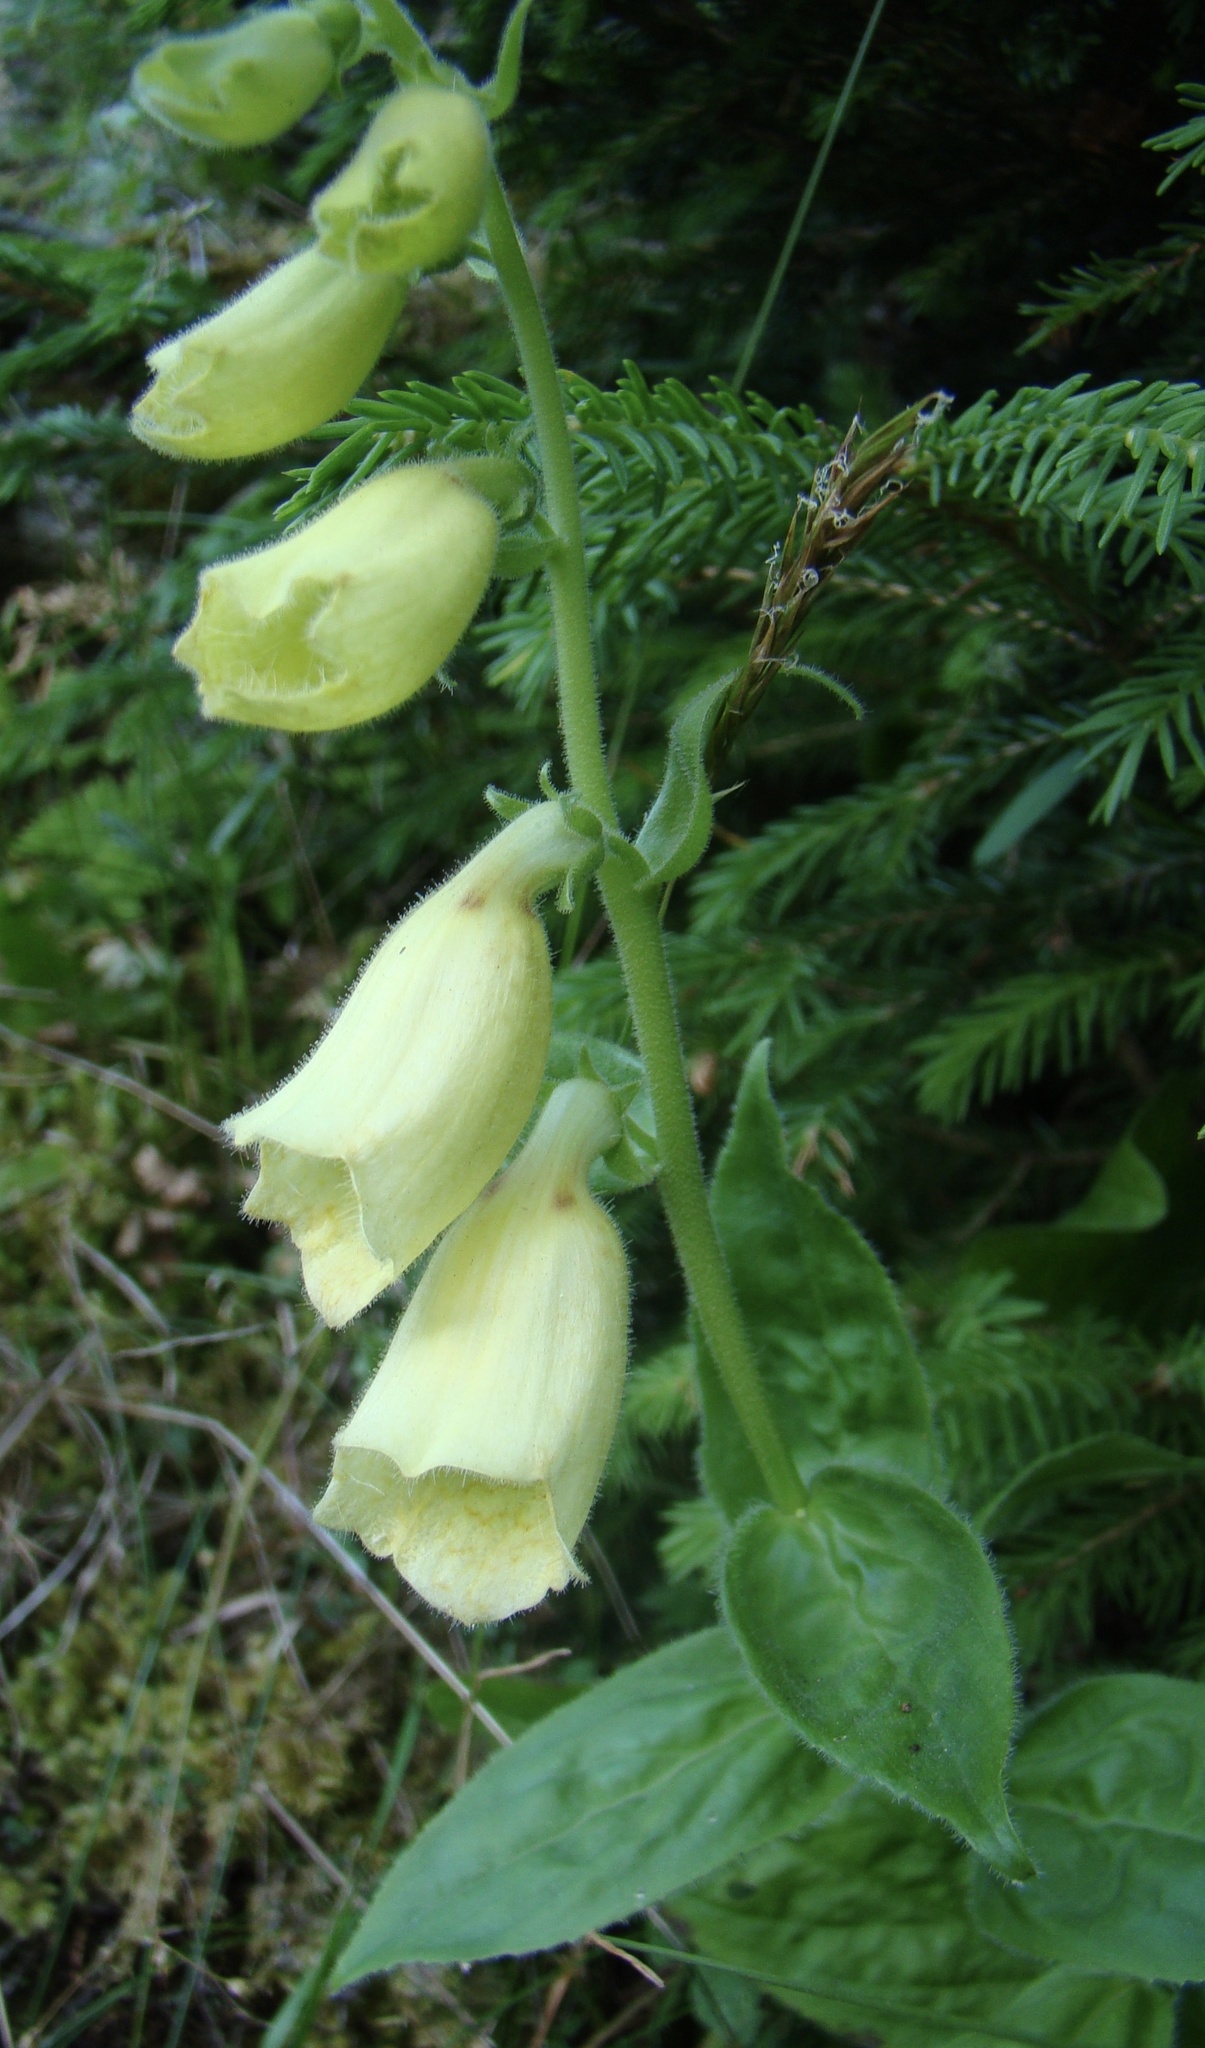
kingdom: Plantae
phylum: Tracheophyta
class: Magnoliopsida
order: Lamiales
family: Plantaginaceae
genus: Digitalis
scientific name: Digitalis grandiflora
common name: Yellow foxglove
